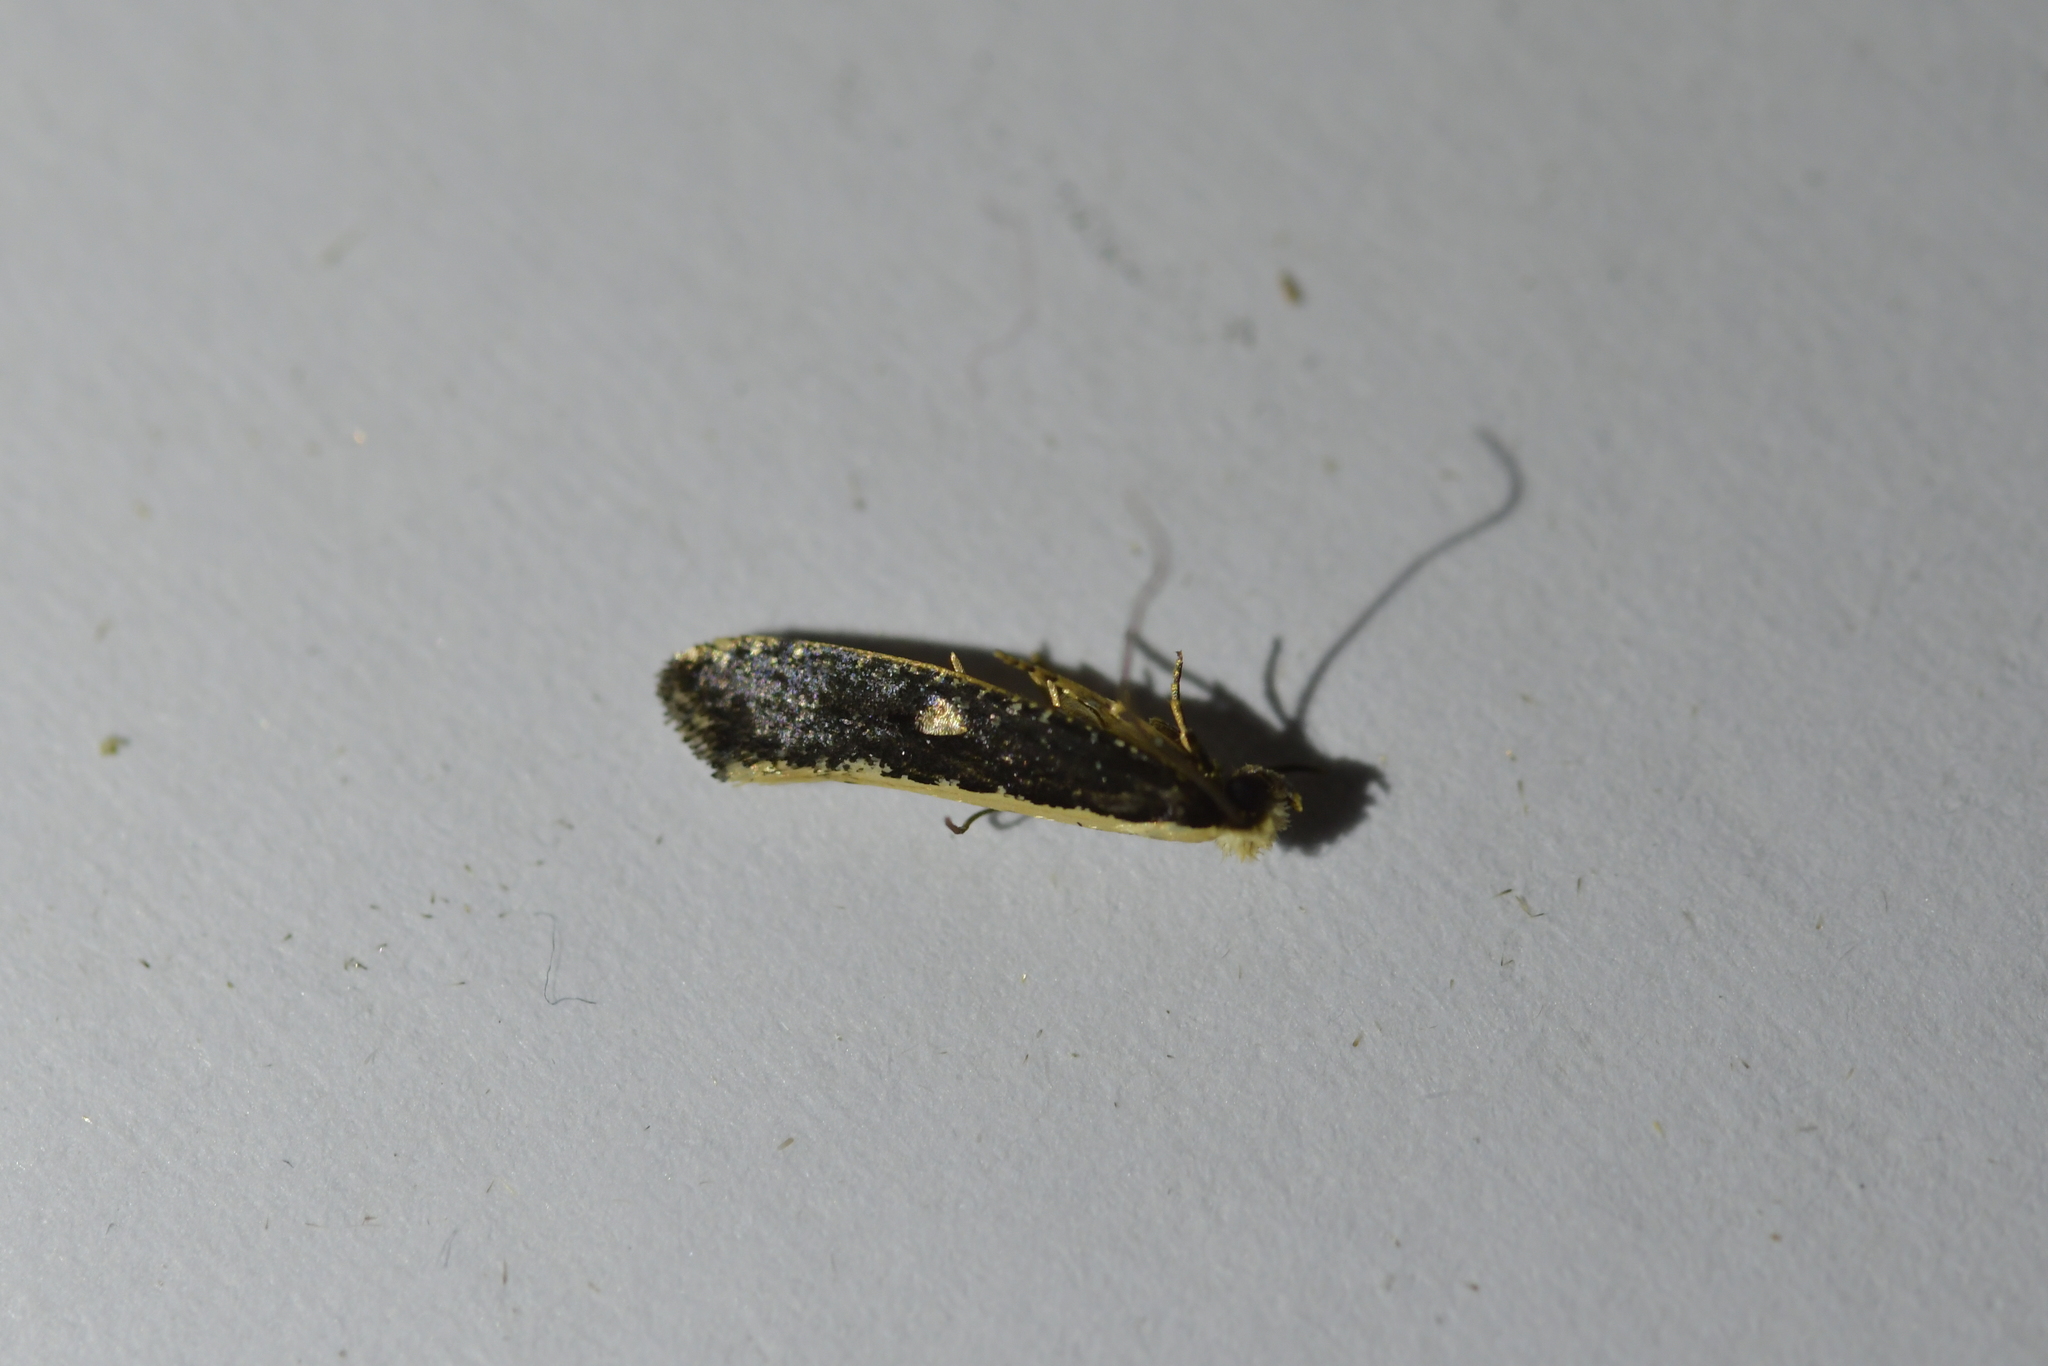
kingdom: Animalia
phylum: Arthropoda
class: Insecta
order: Lepidoptera
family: Tineidae
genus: Monopis
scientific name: Monopis ethelella
